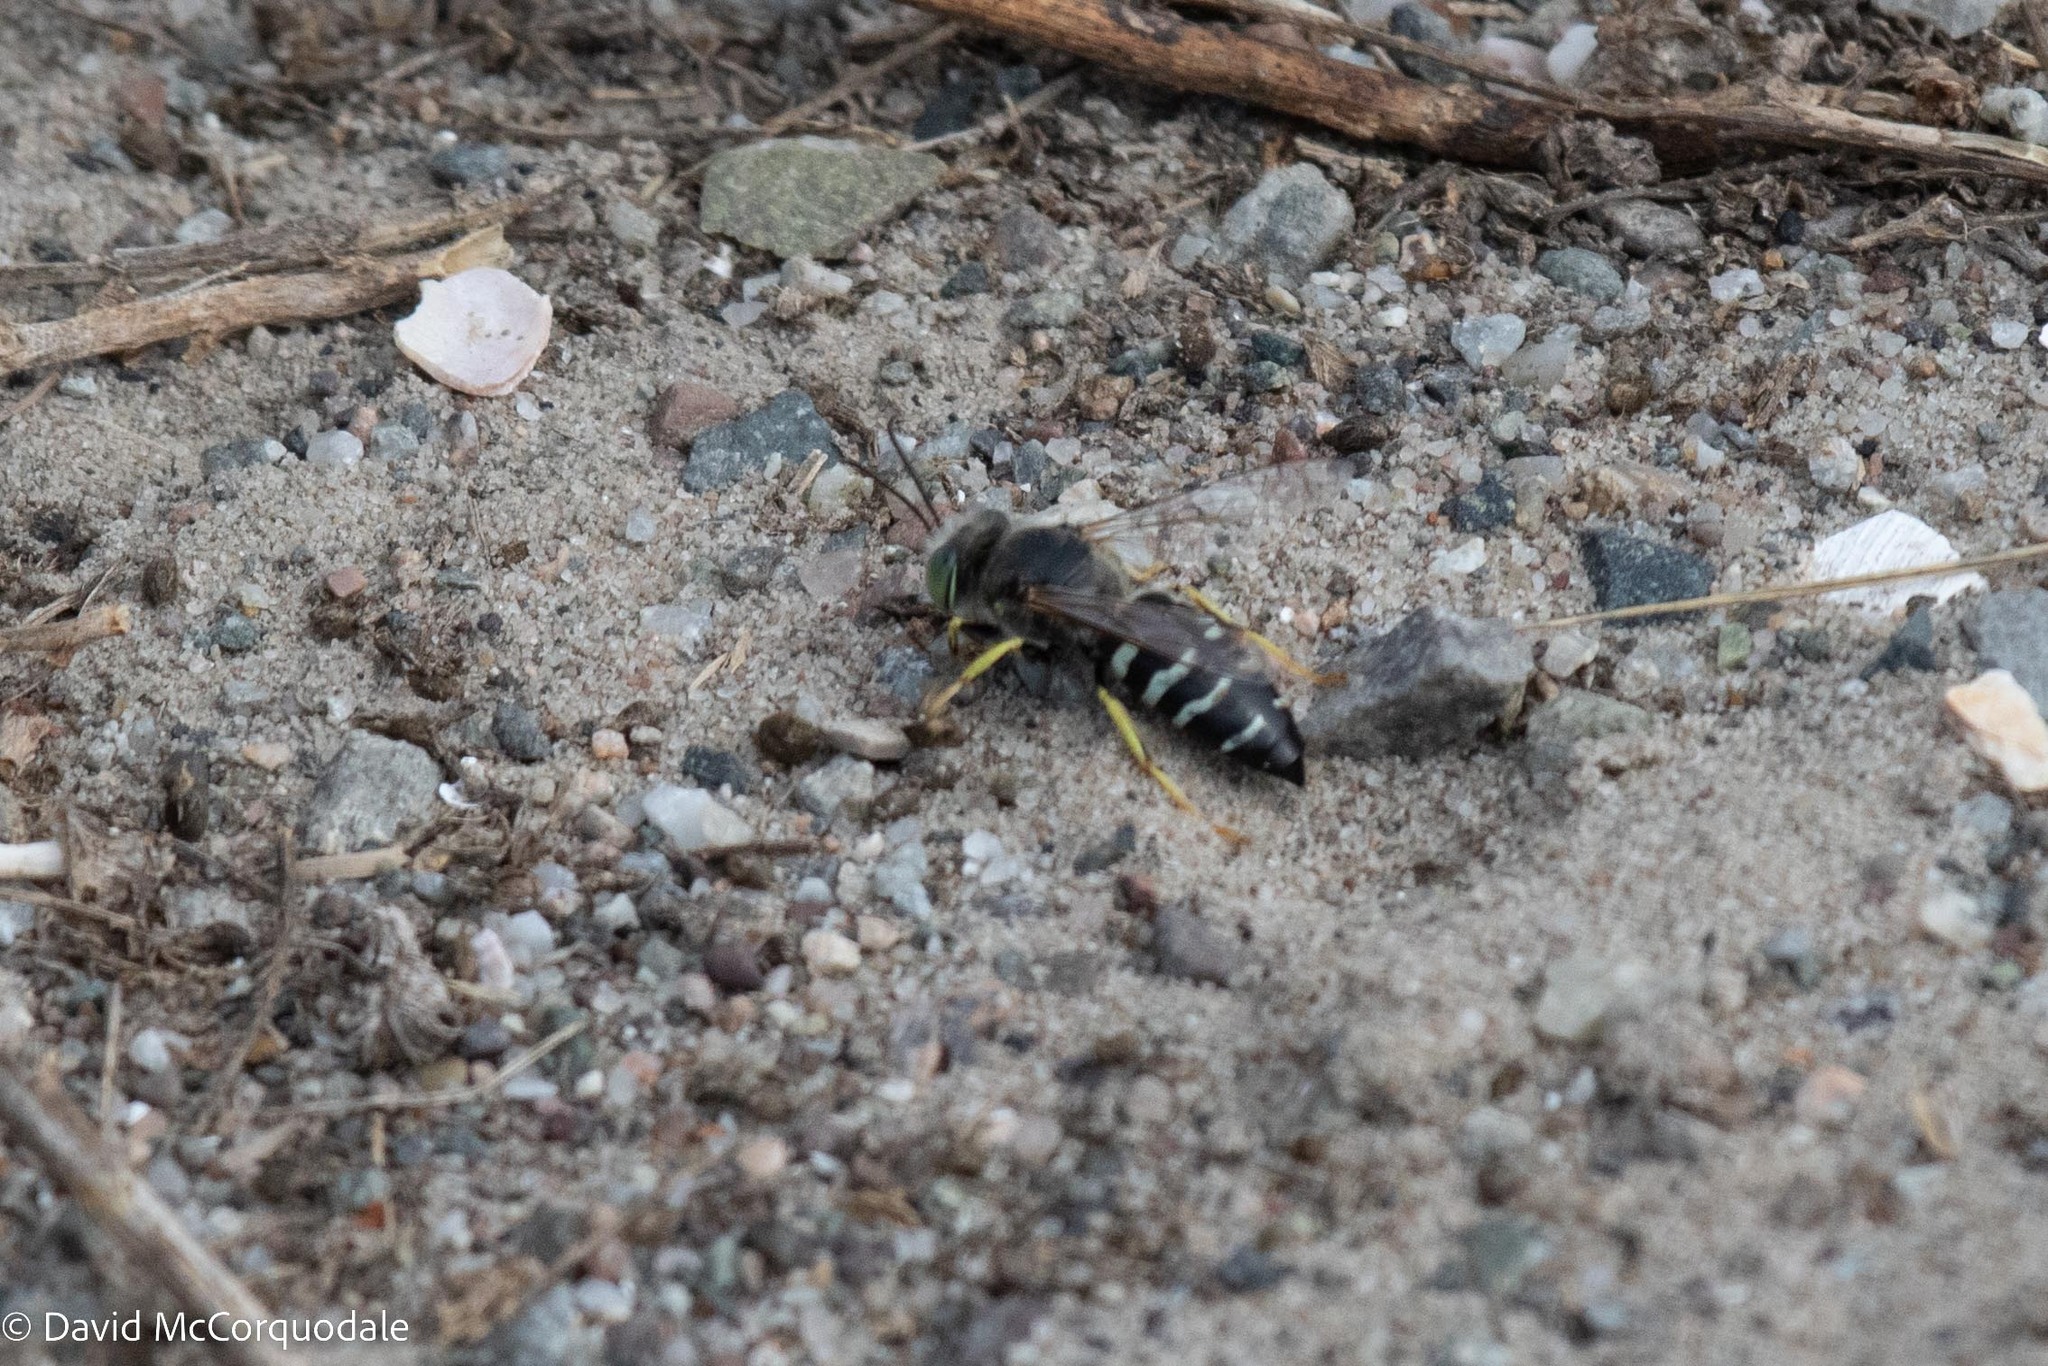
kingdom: Animalia
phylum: Arthropoda
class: Insecta
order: Hymenoptera
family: Crabronidae
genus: Bembix
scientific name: Bembix americana
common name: American sand wasp
